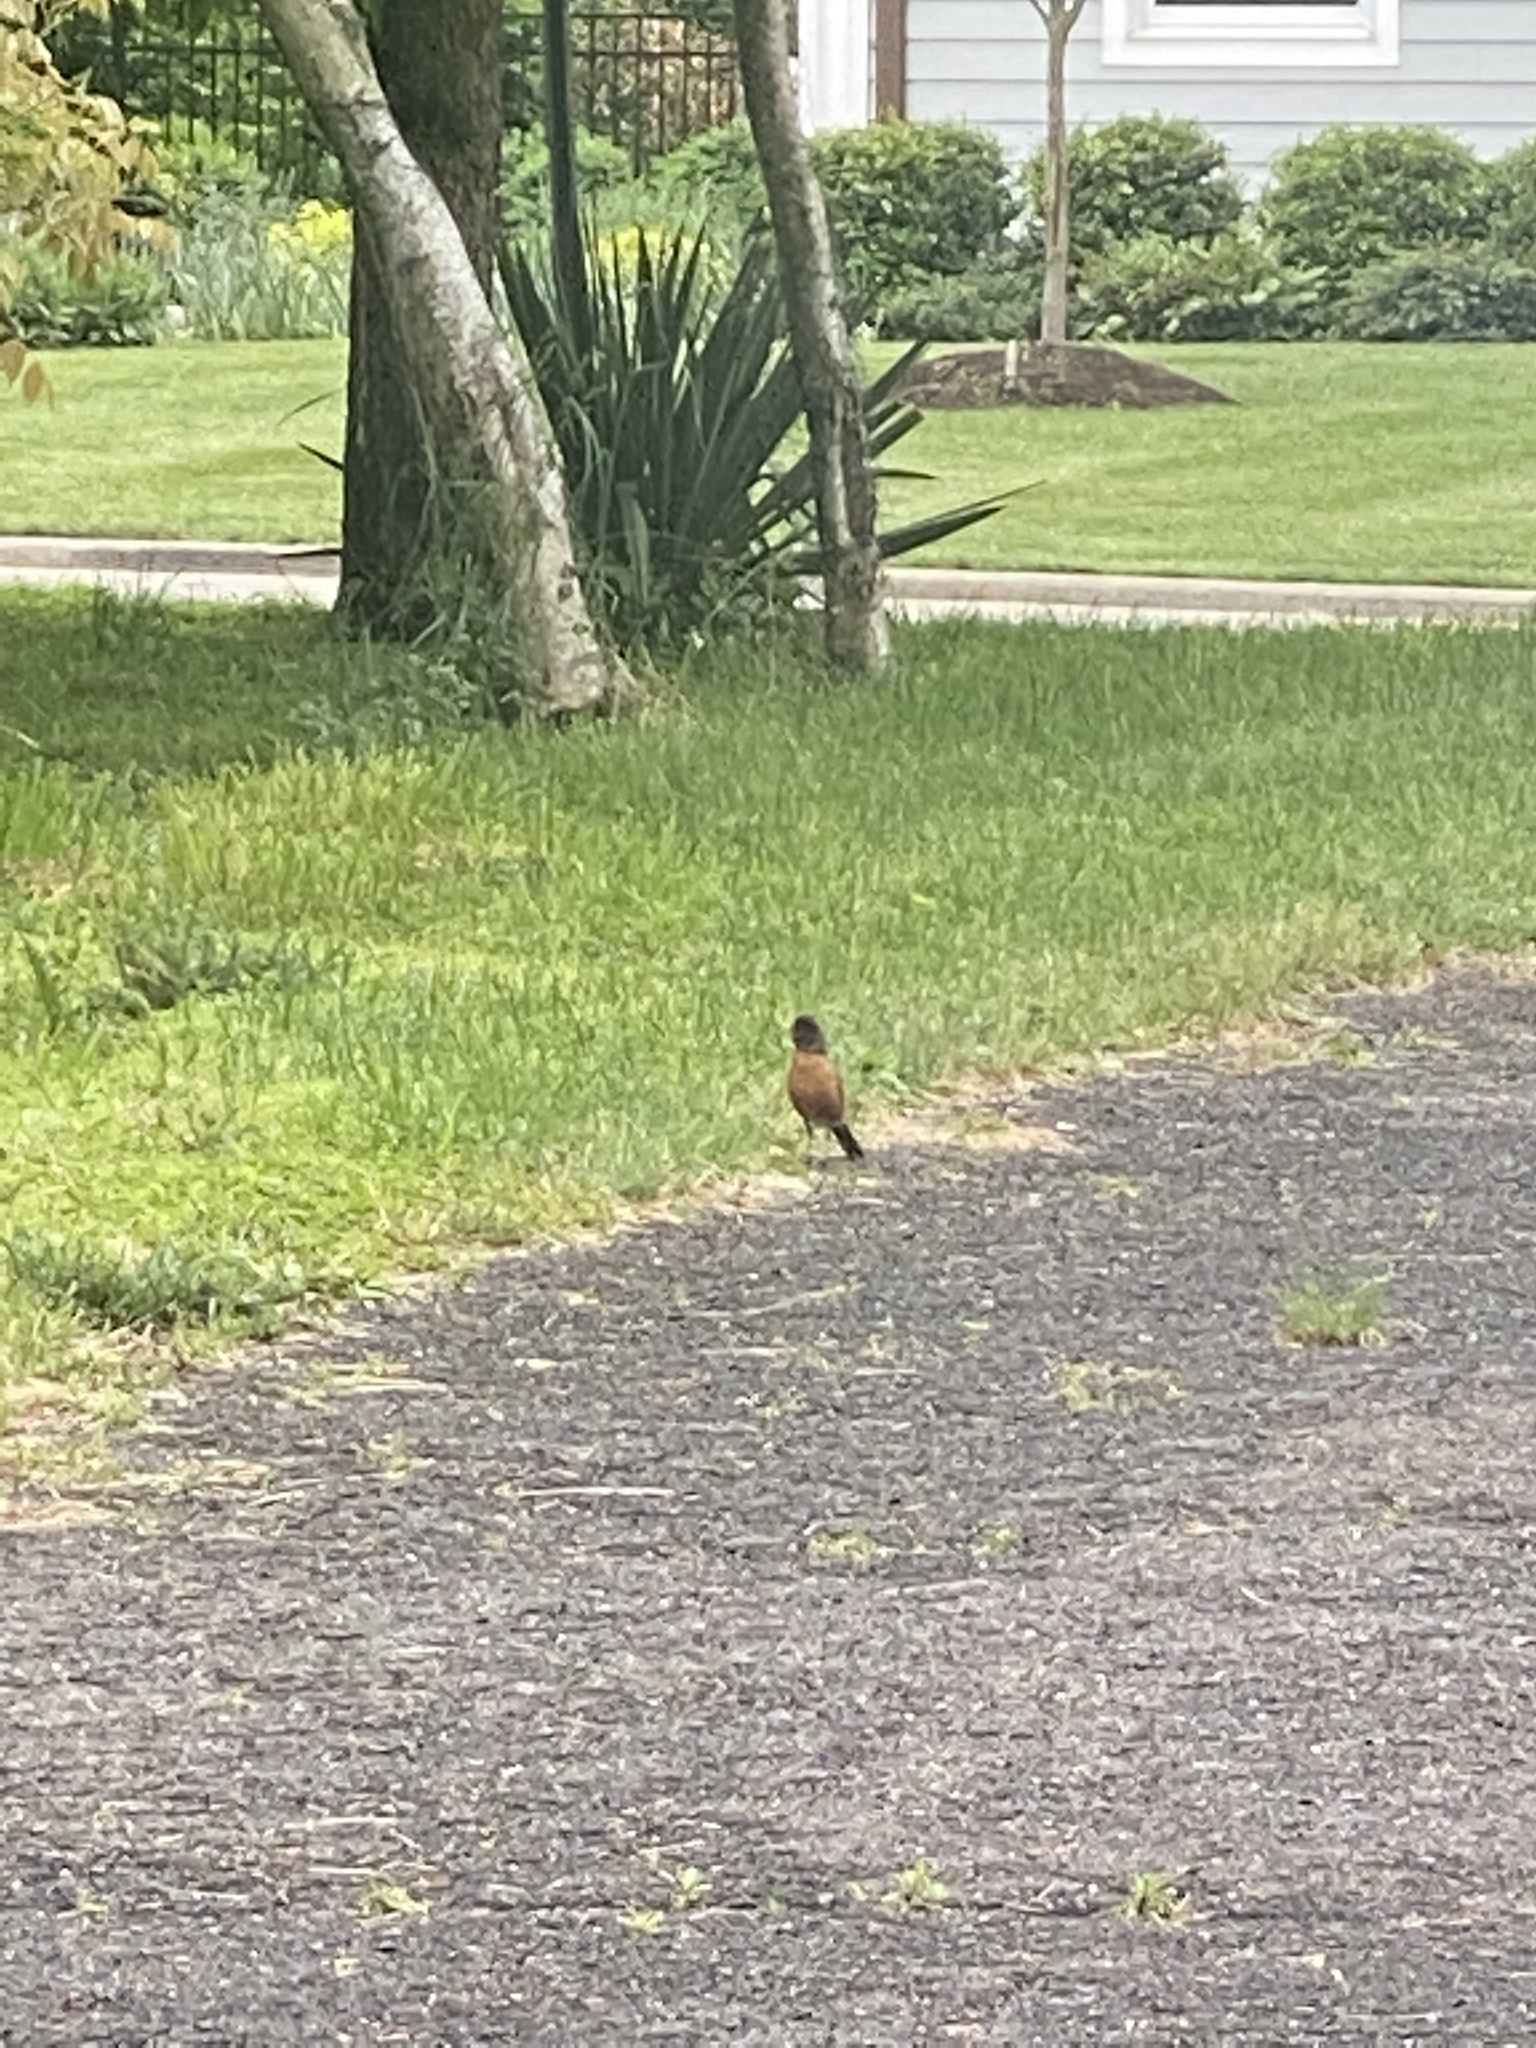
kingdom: Animalia
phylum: Chordata
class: Aves
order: Passeriformes
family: Turdidae
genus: Turdus
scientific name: Turdus migratorius
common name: American robin
